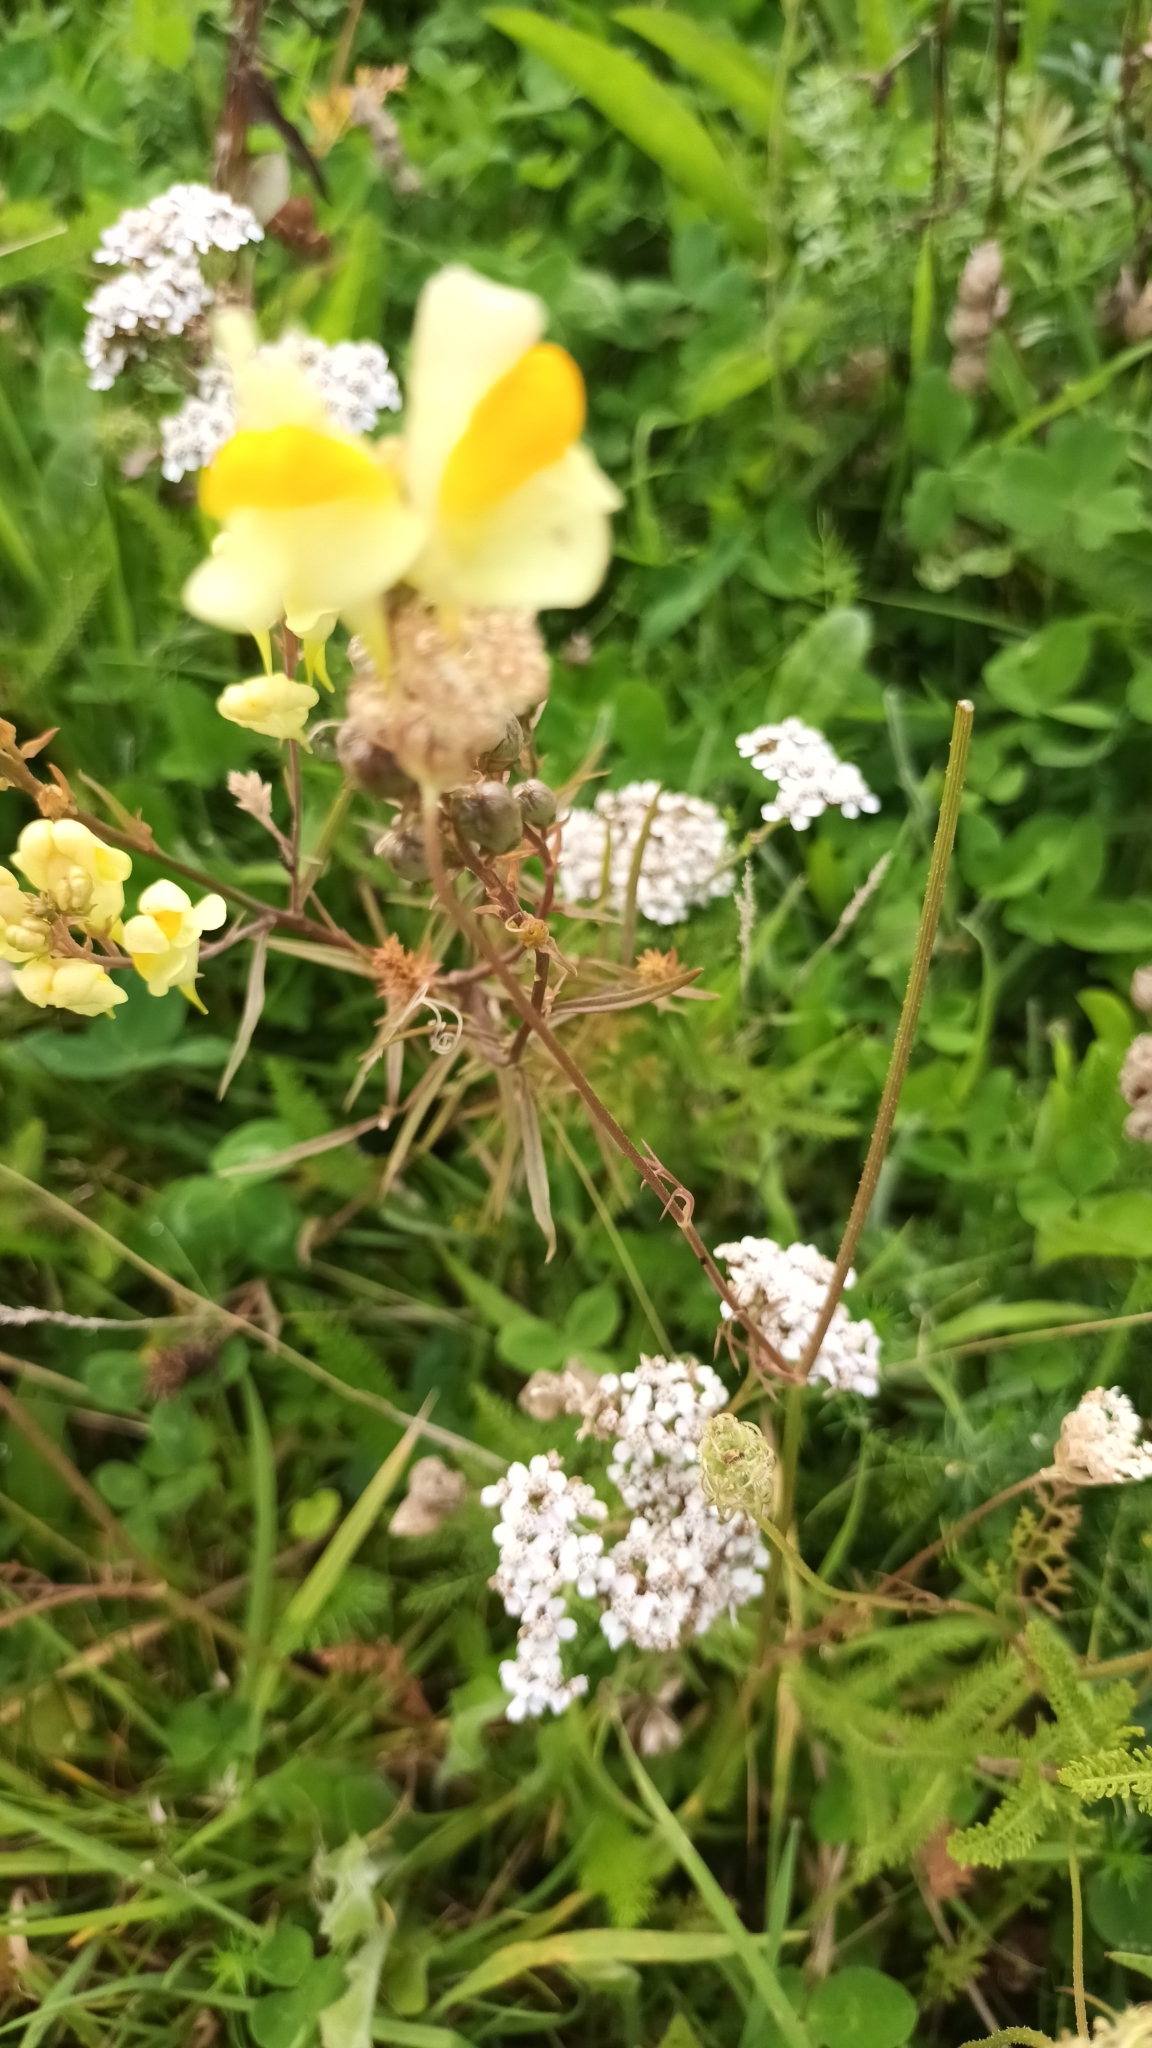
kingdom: Plantae
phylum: Tracheophyta
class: Magnoliopsida
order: Lamiales
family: Plantaginaceae
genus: Linaria
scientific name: Linaria vulgaris
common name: Butter and eggs
